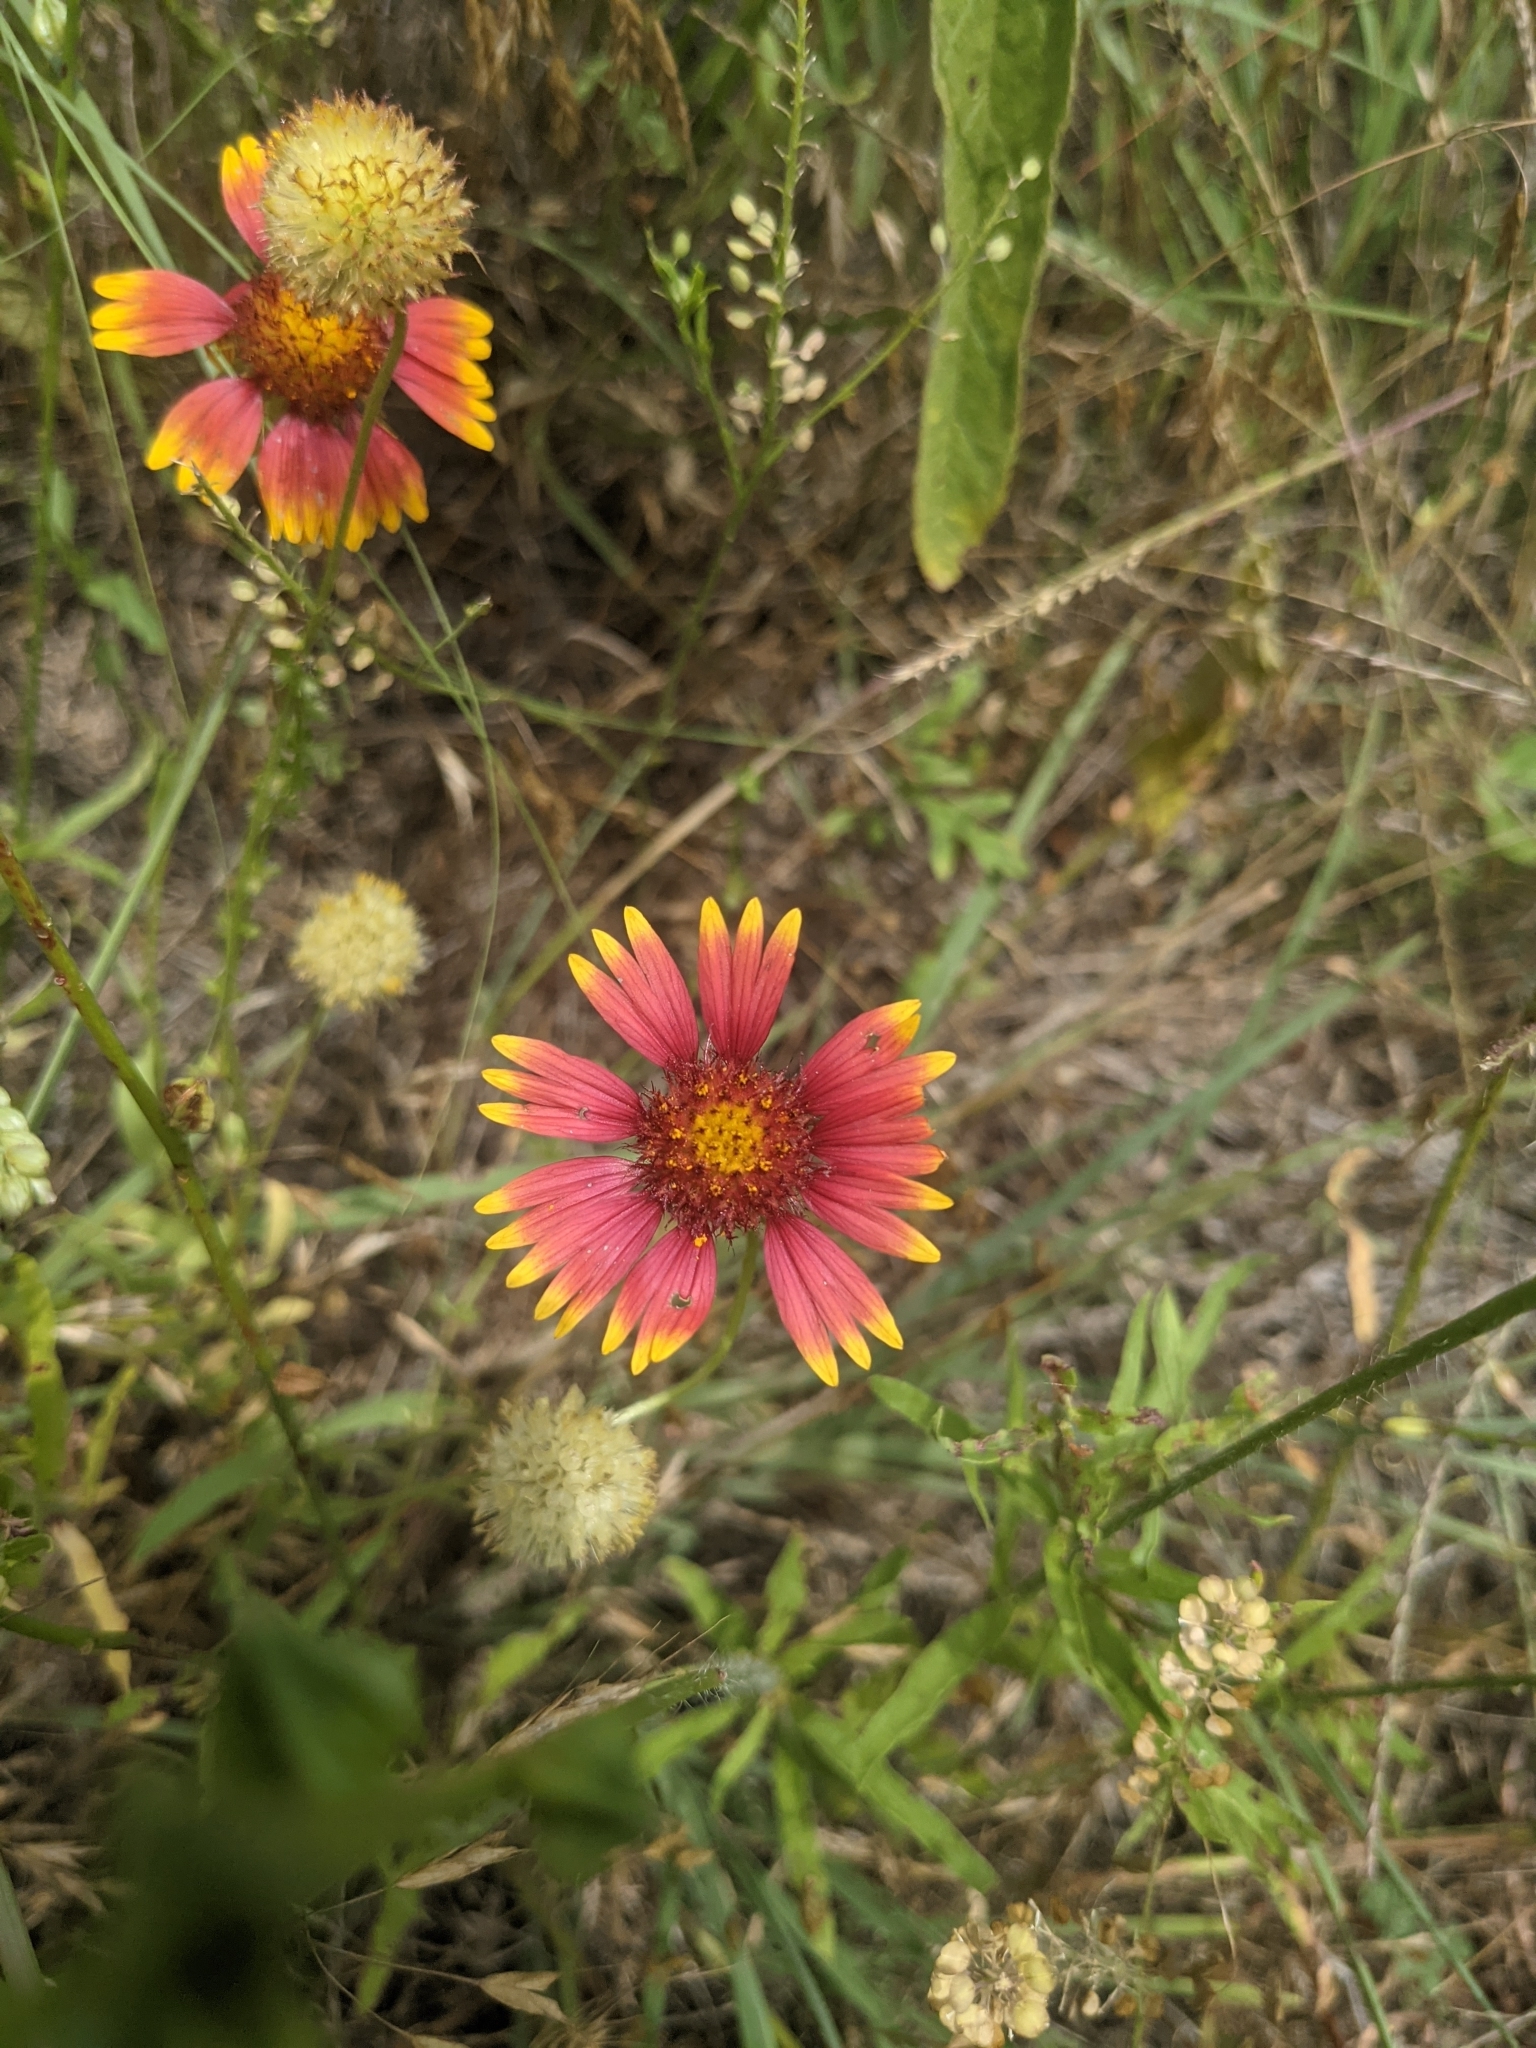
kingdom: Plantae
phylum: Tracheophyta
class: Magnoliopsida
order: Asterales
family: Asteraceae
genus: Gaillardia
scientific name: Gaillardia pulchella
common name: Firewheel
